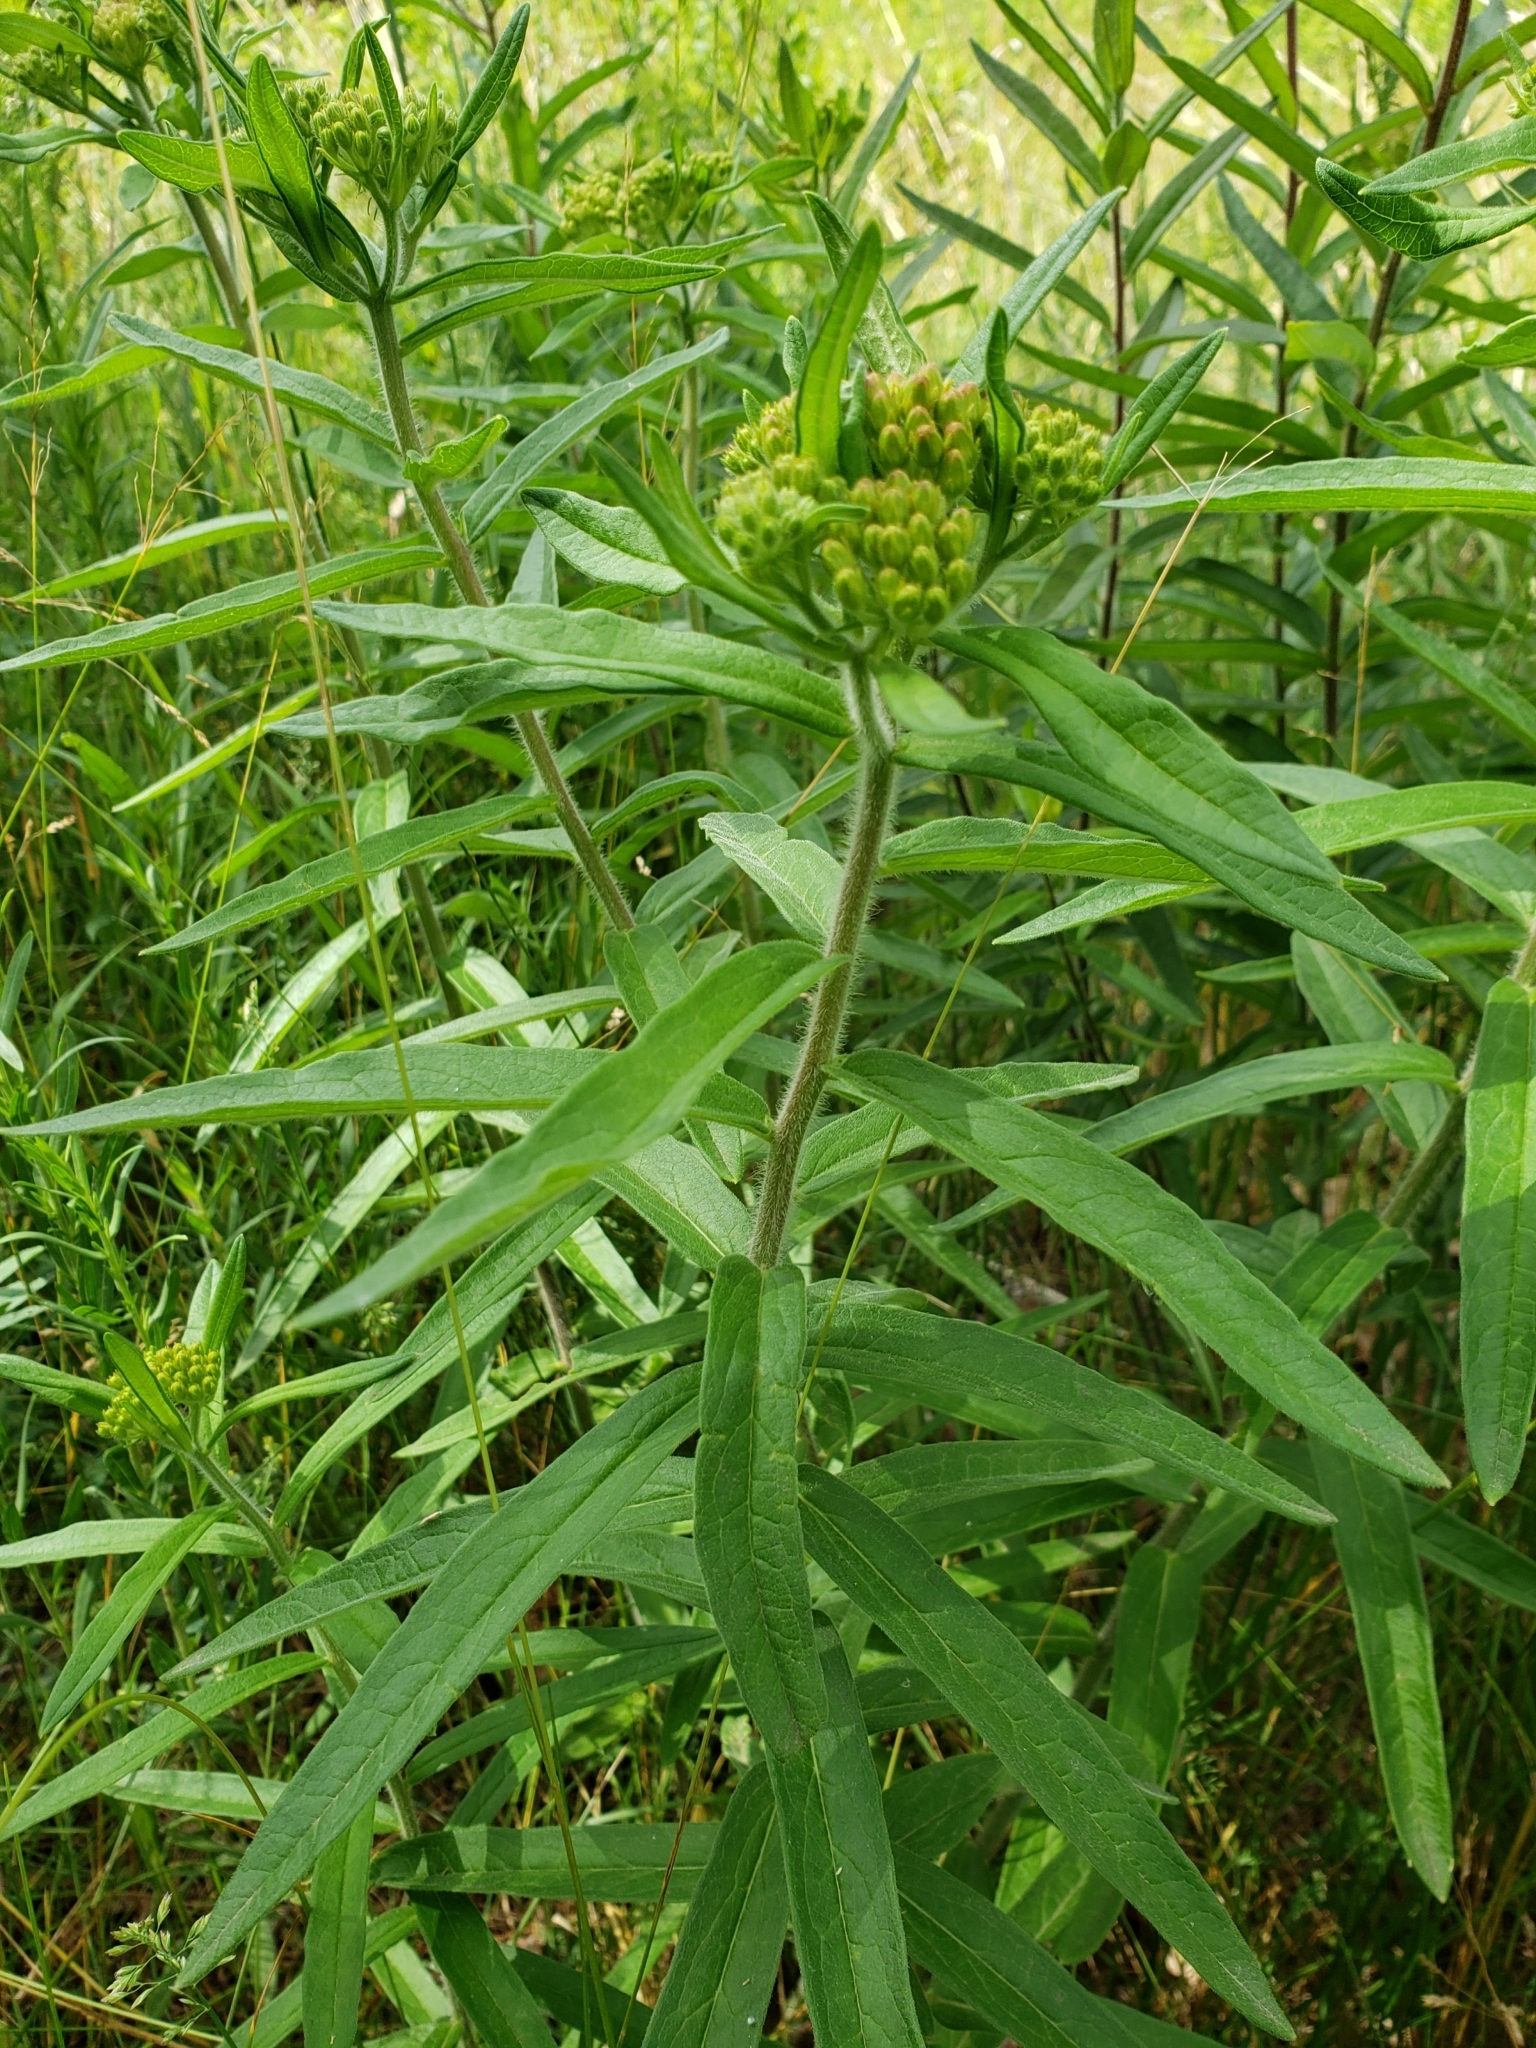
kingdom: Plantae
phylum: Tracheophyta
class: Magnoliopsida
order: Gentianales
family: Apocynaceae
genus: Asclepias
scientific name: Asclepias tuberosa
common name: Butterfly milkweed
